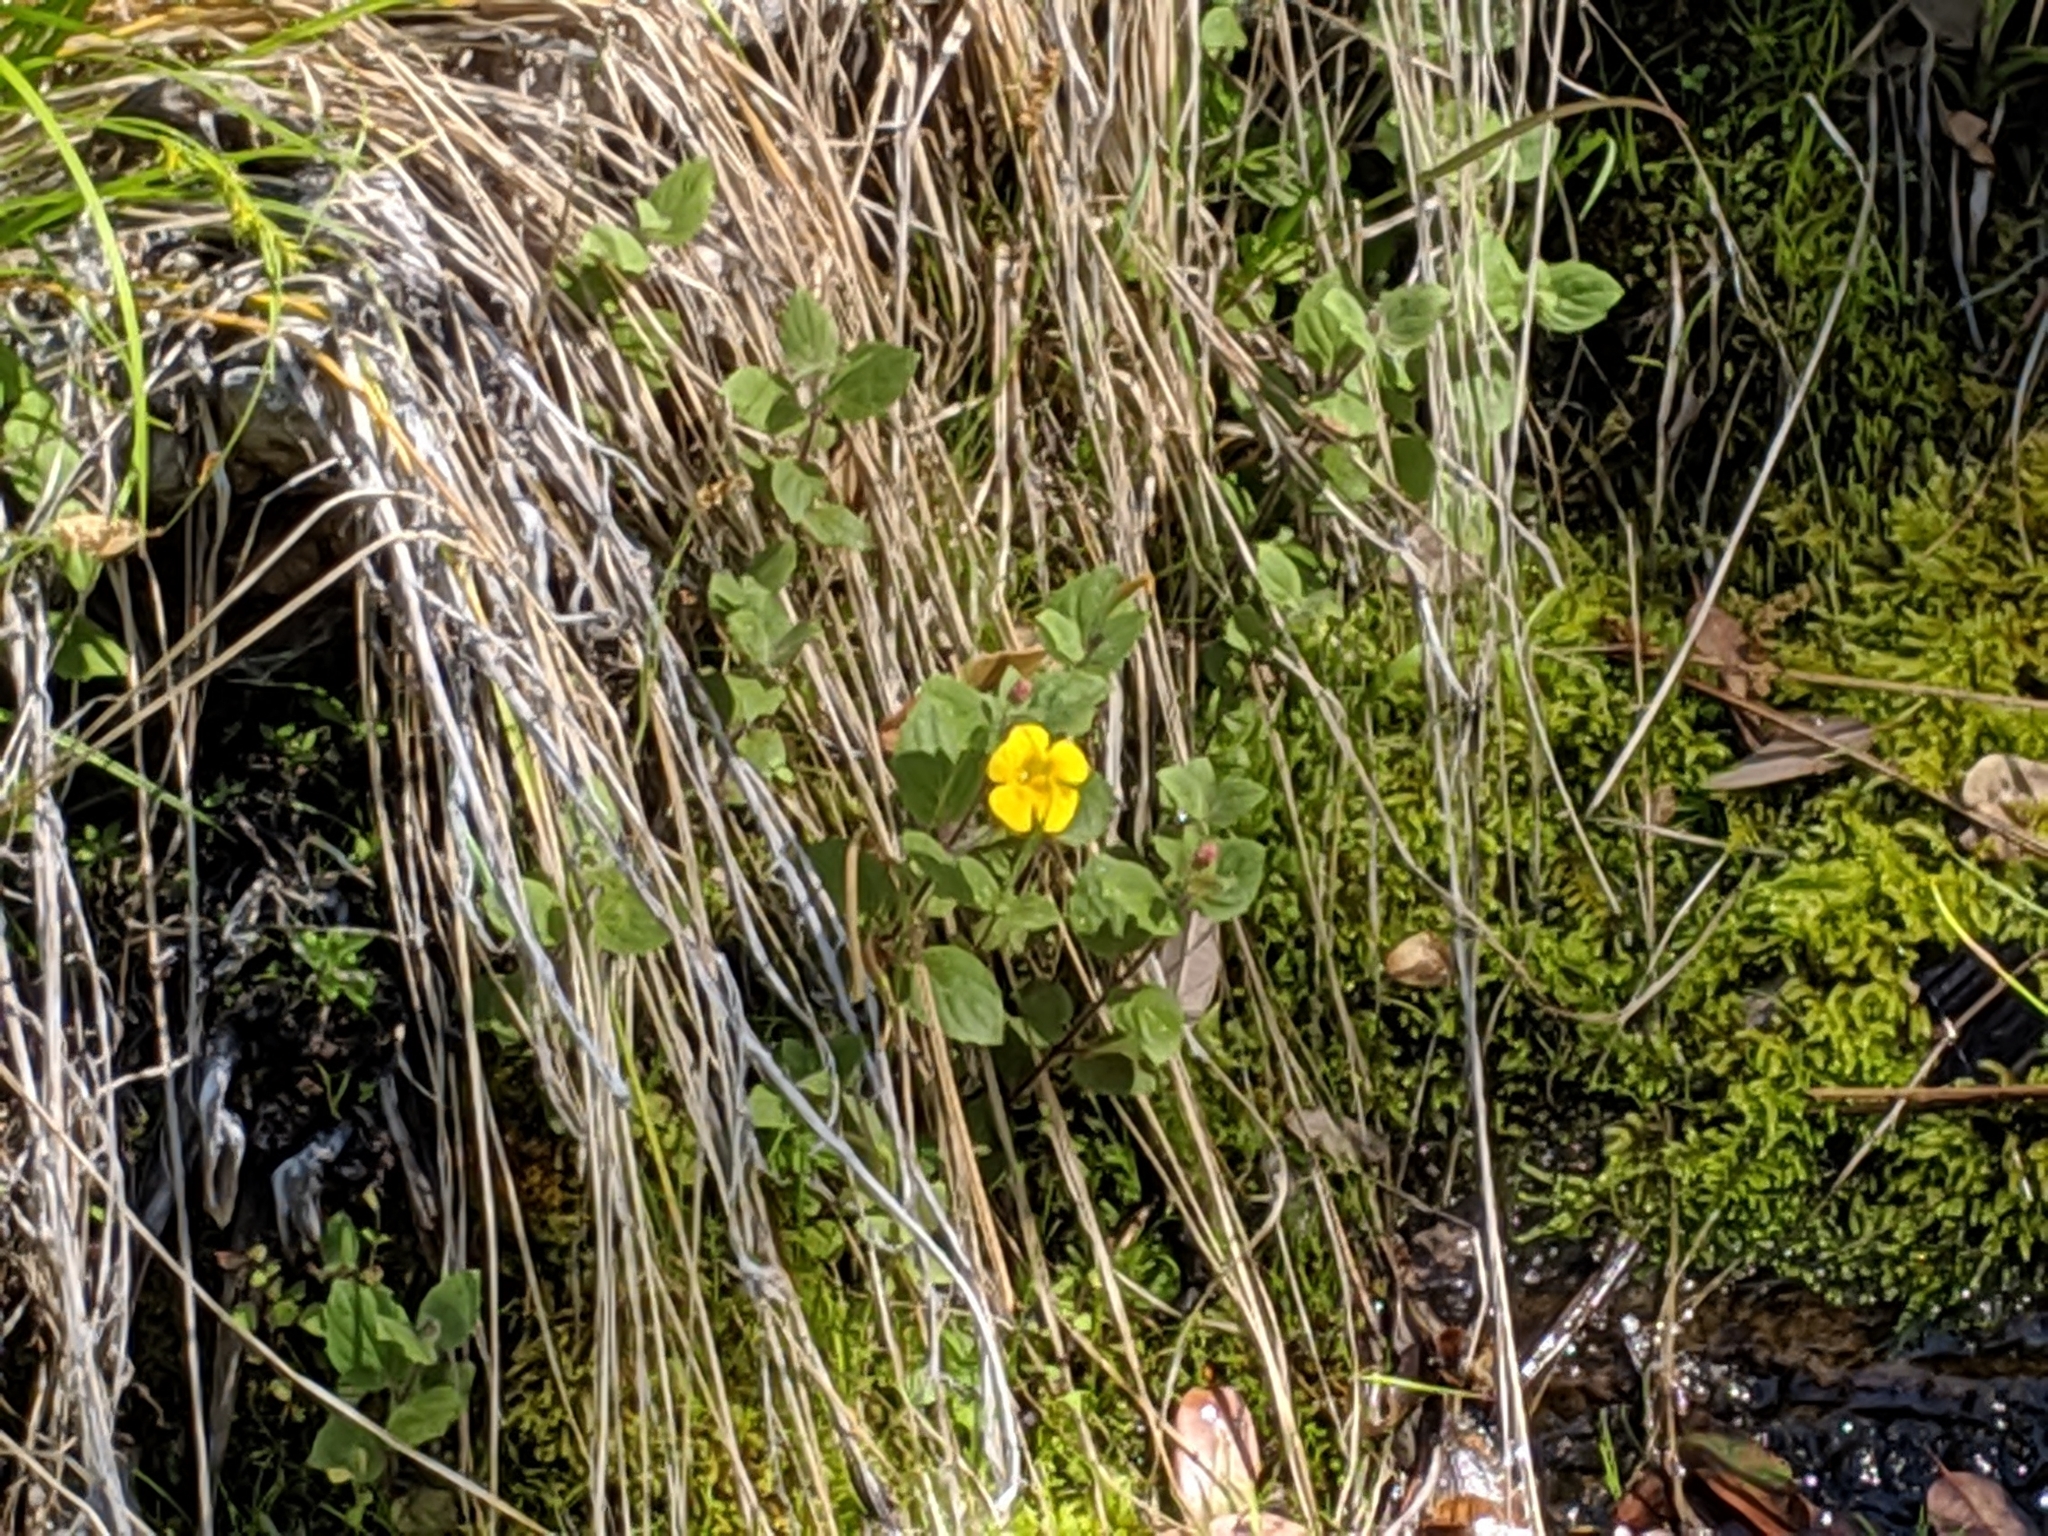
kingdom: Plantae
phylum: Tracheophyta
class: Magnoliopsida
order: Lamiales
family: Phrymaceae
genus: Erythranthe
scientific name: Erythranthe moschata
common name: Muskflower
